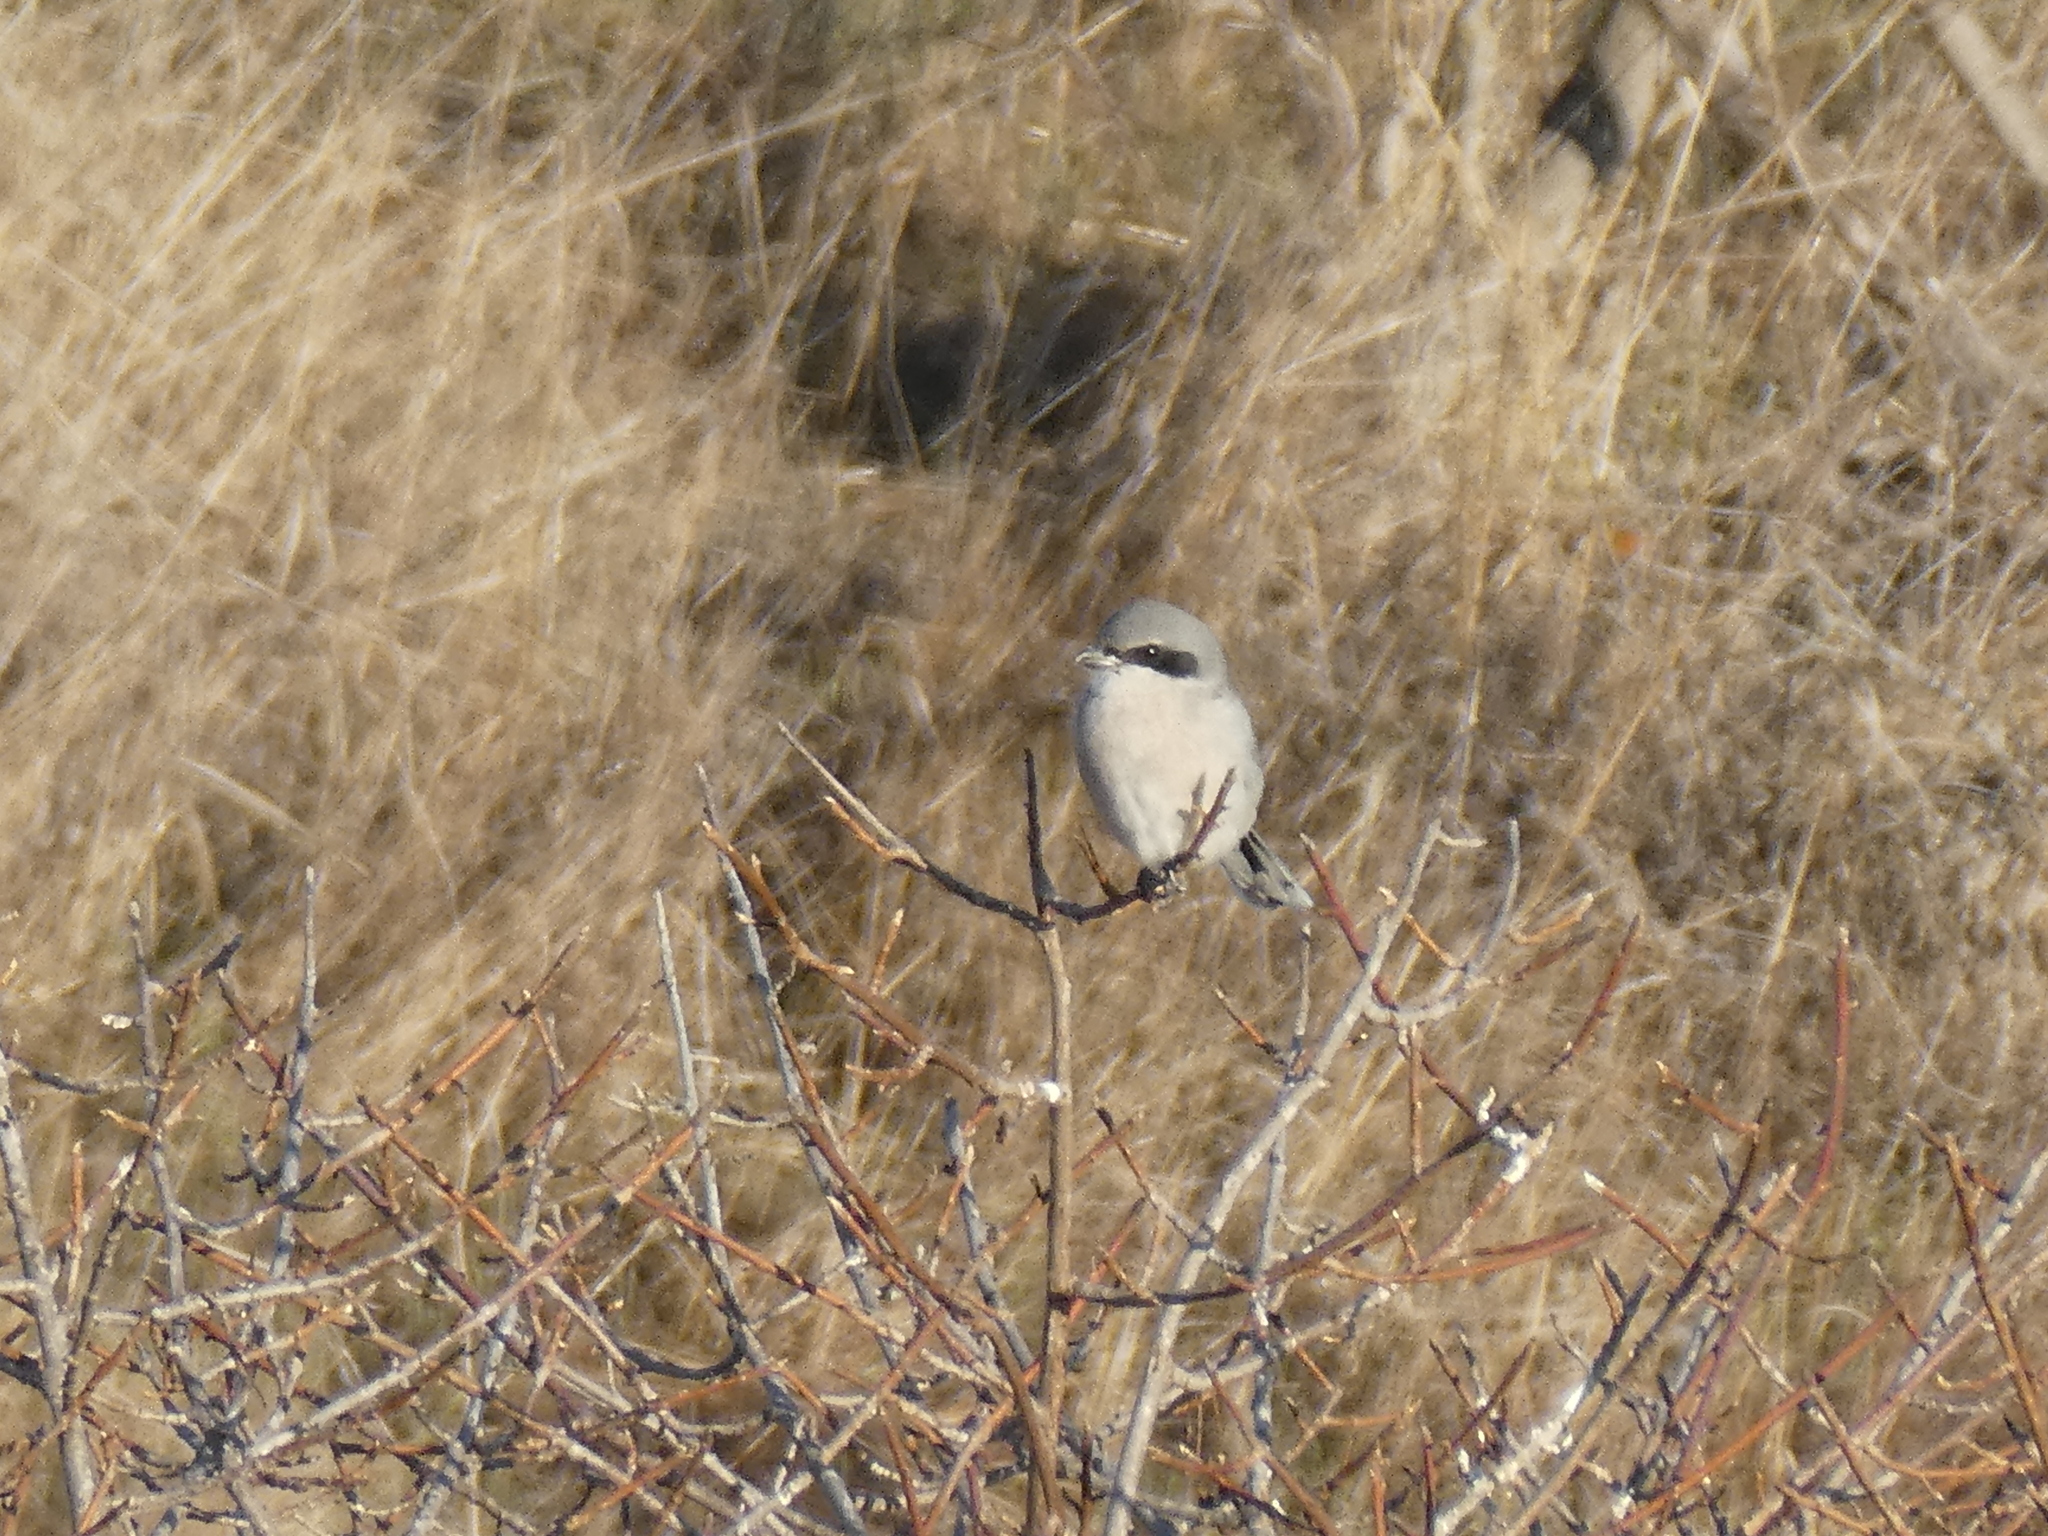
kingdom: Animalia
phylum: Chordata
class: Aves
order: Passeriformes
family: Laniidae
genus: Lanius
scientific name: Lanius ludovicianus
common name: Loggerhead shrike
